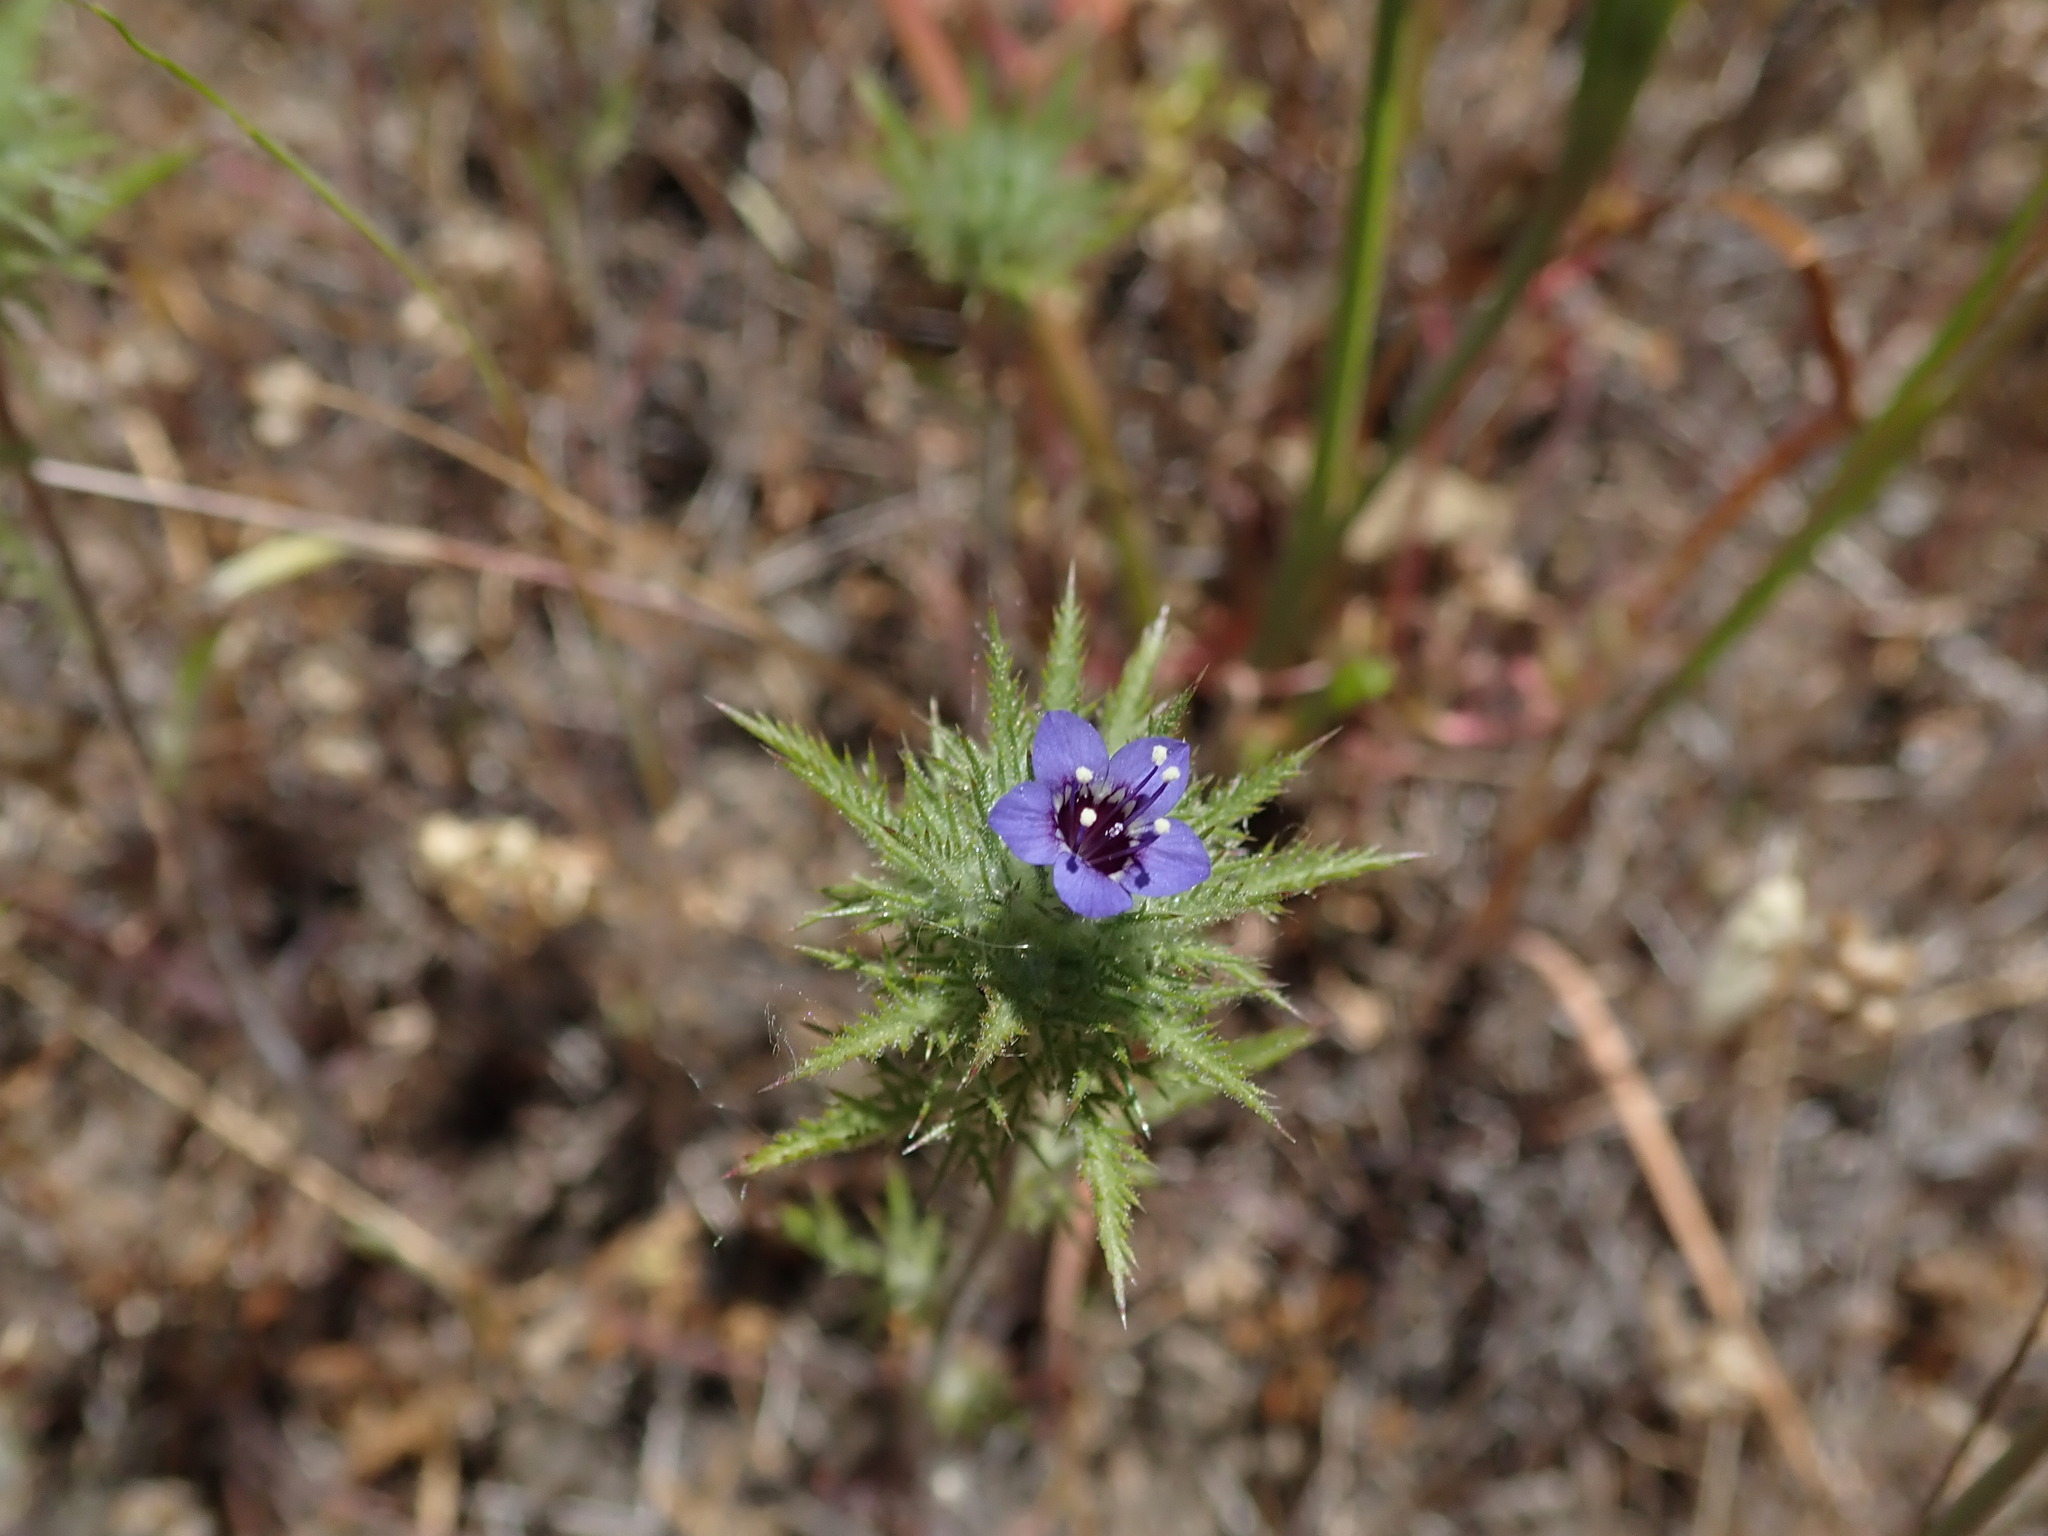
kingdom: Plantae
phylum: Tracheophyta
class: Magnoliopsida
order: Ericales
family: Polemoniaceae
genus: Navarretia
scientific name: Navarretia pubescens
